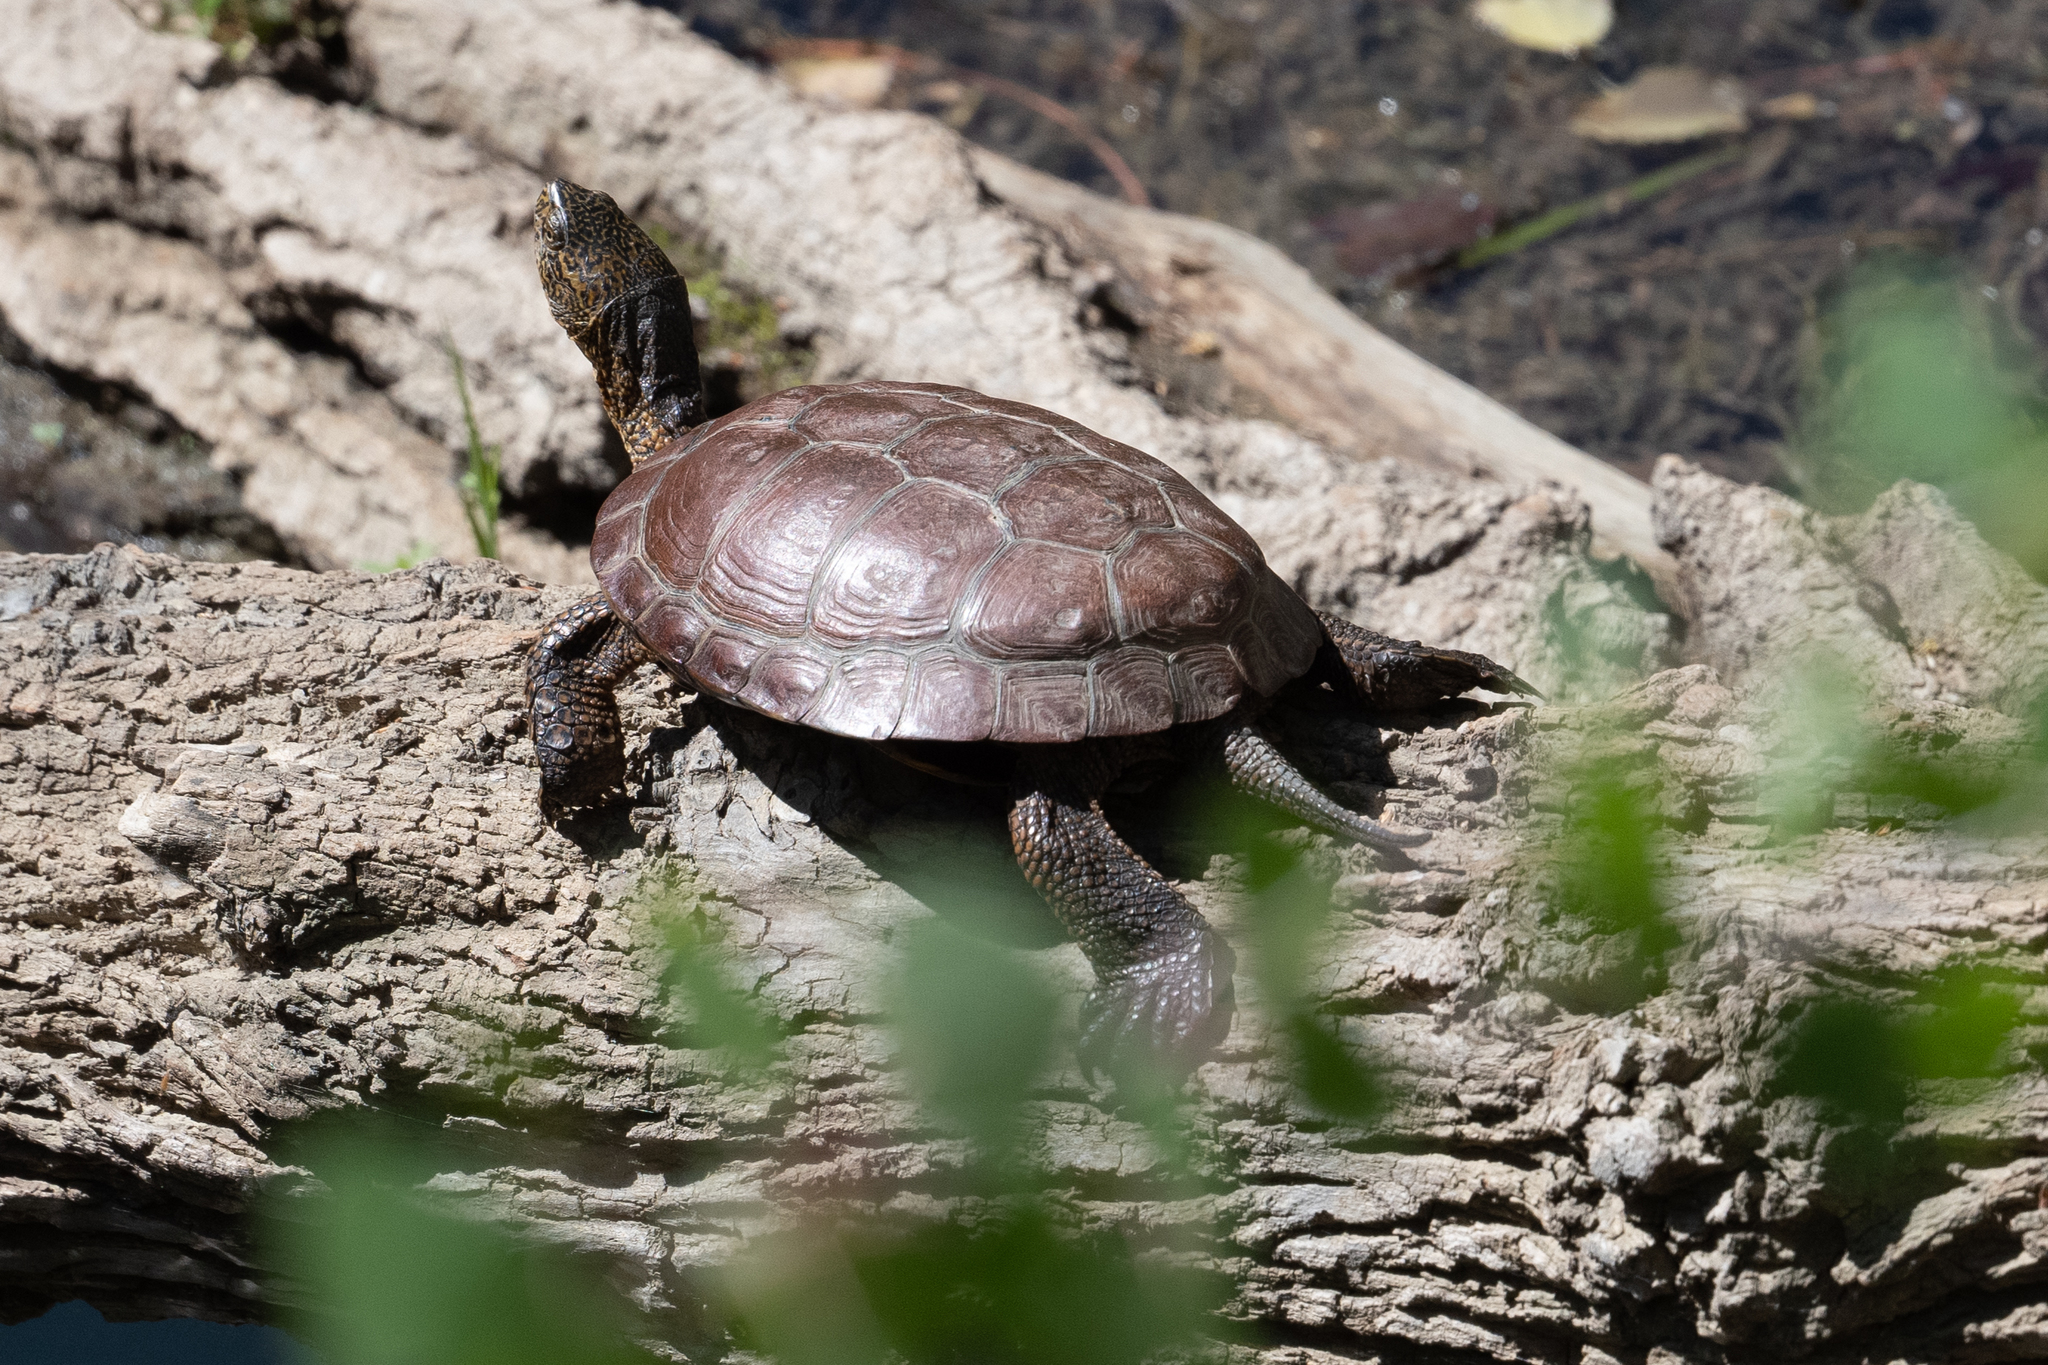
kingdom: Animalia
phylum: Chordata
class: Testudines
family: Emydidae
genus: Actinemys
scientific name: Actinemys marmorata
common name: Western pond turtle
